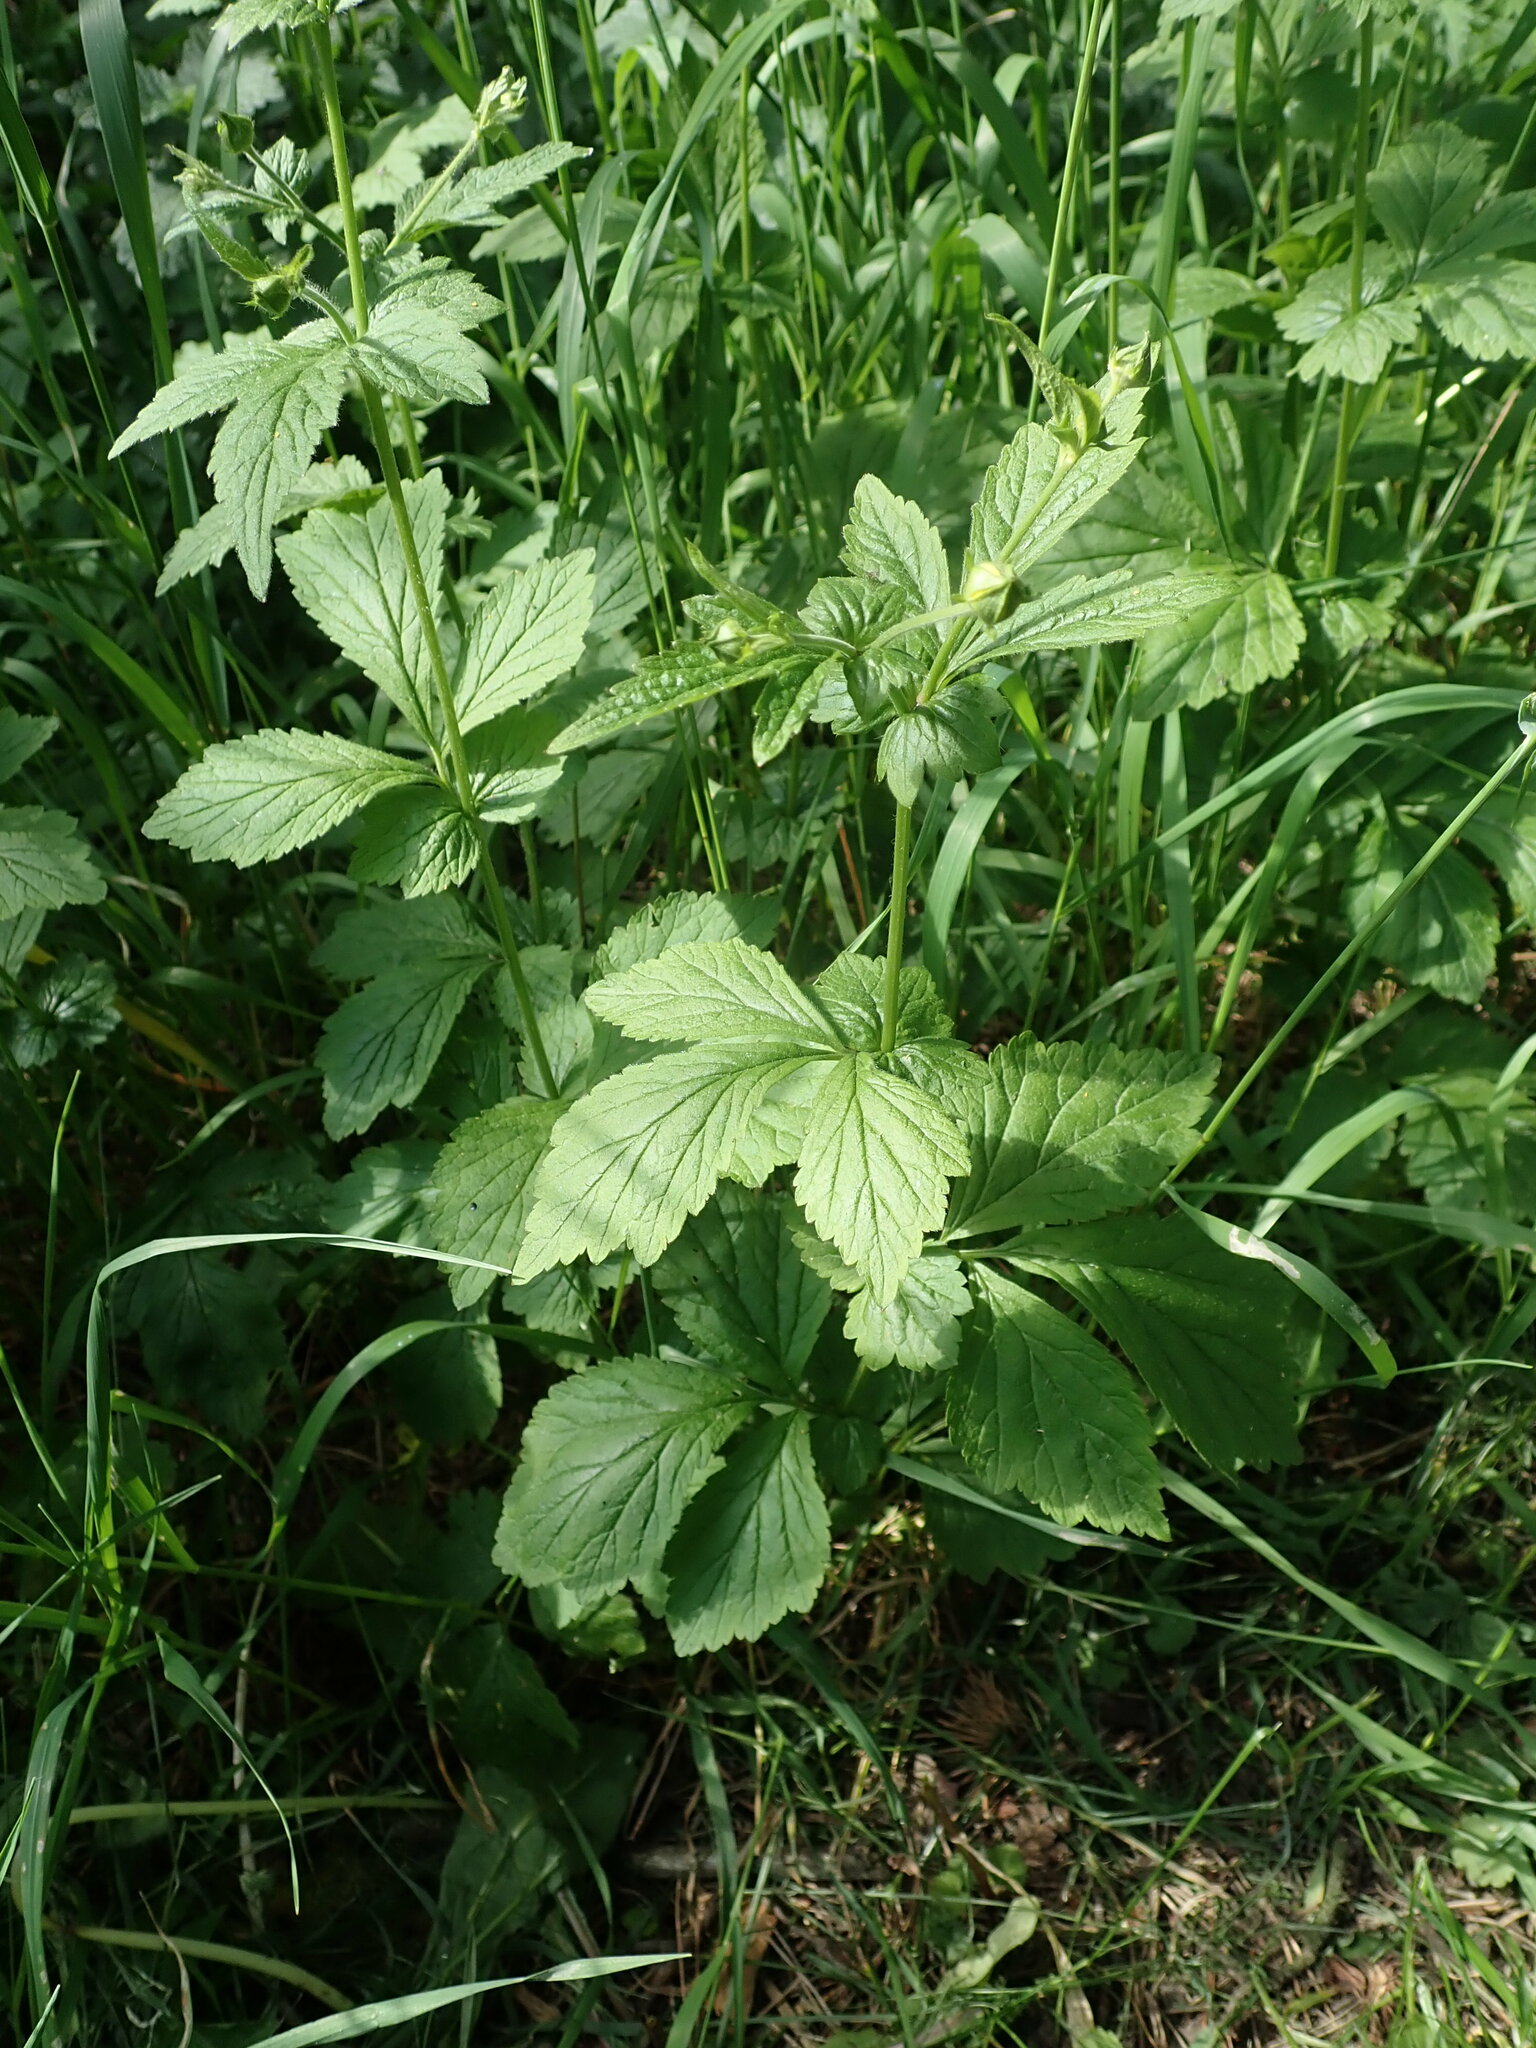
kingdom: Plantae
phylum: Tracheophyta
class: Magnoliopsida
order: Rosales
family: Rosaceae
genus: Geum
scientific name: Geum urbanum
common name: Wood avens
